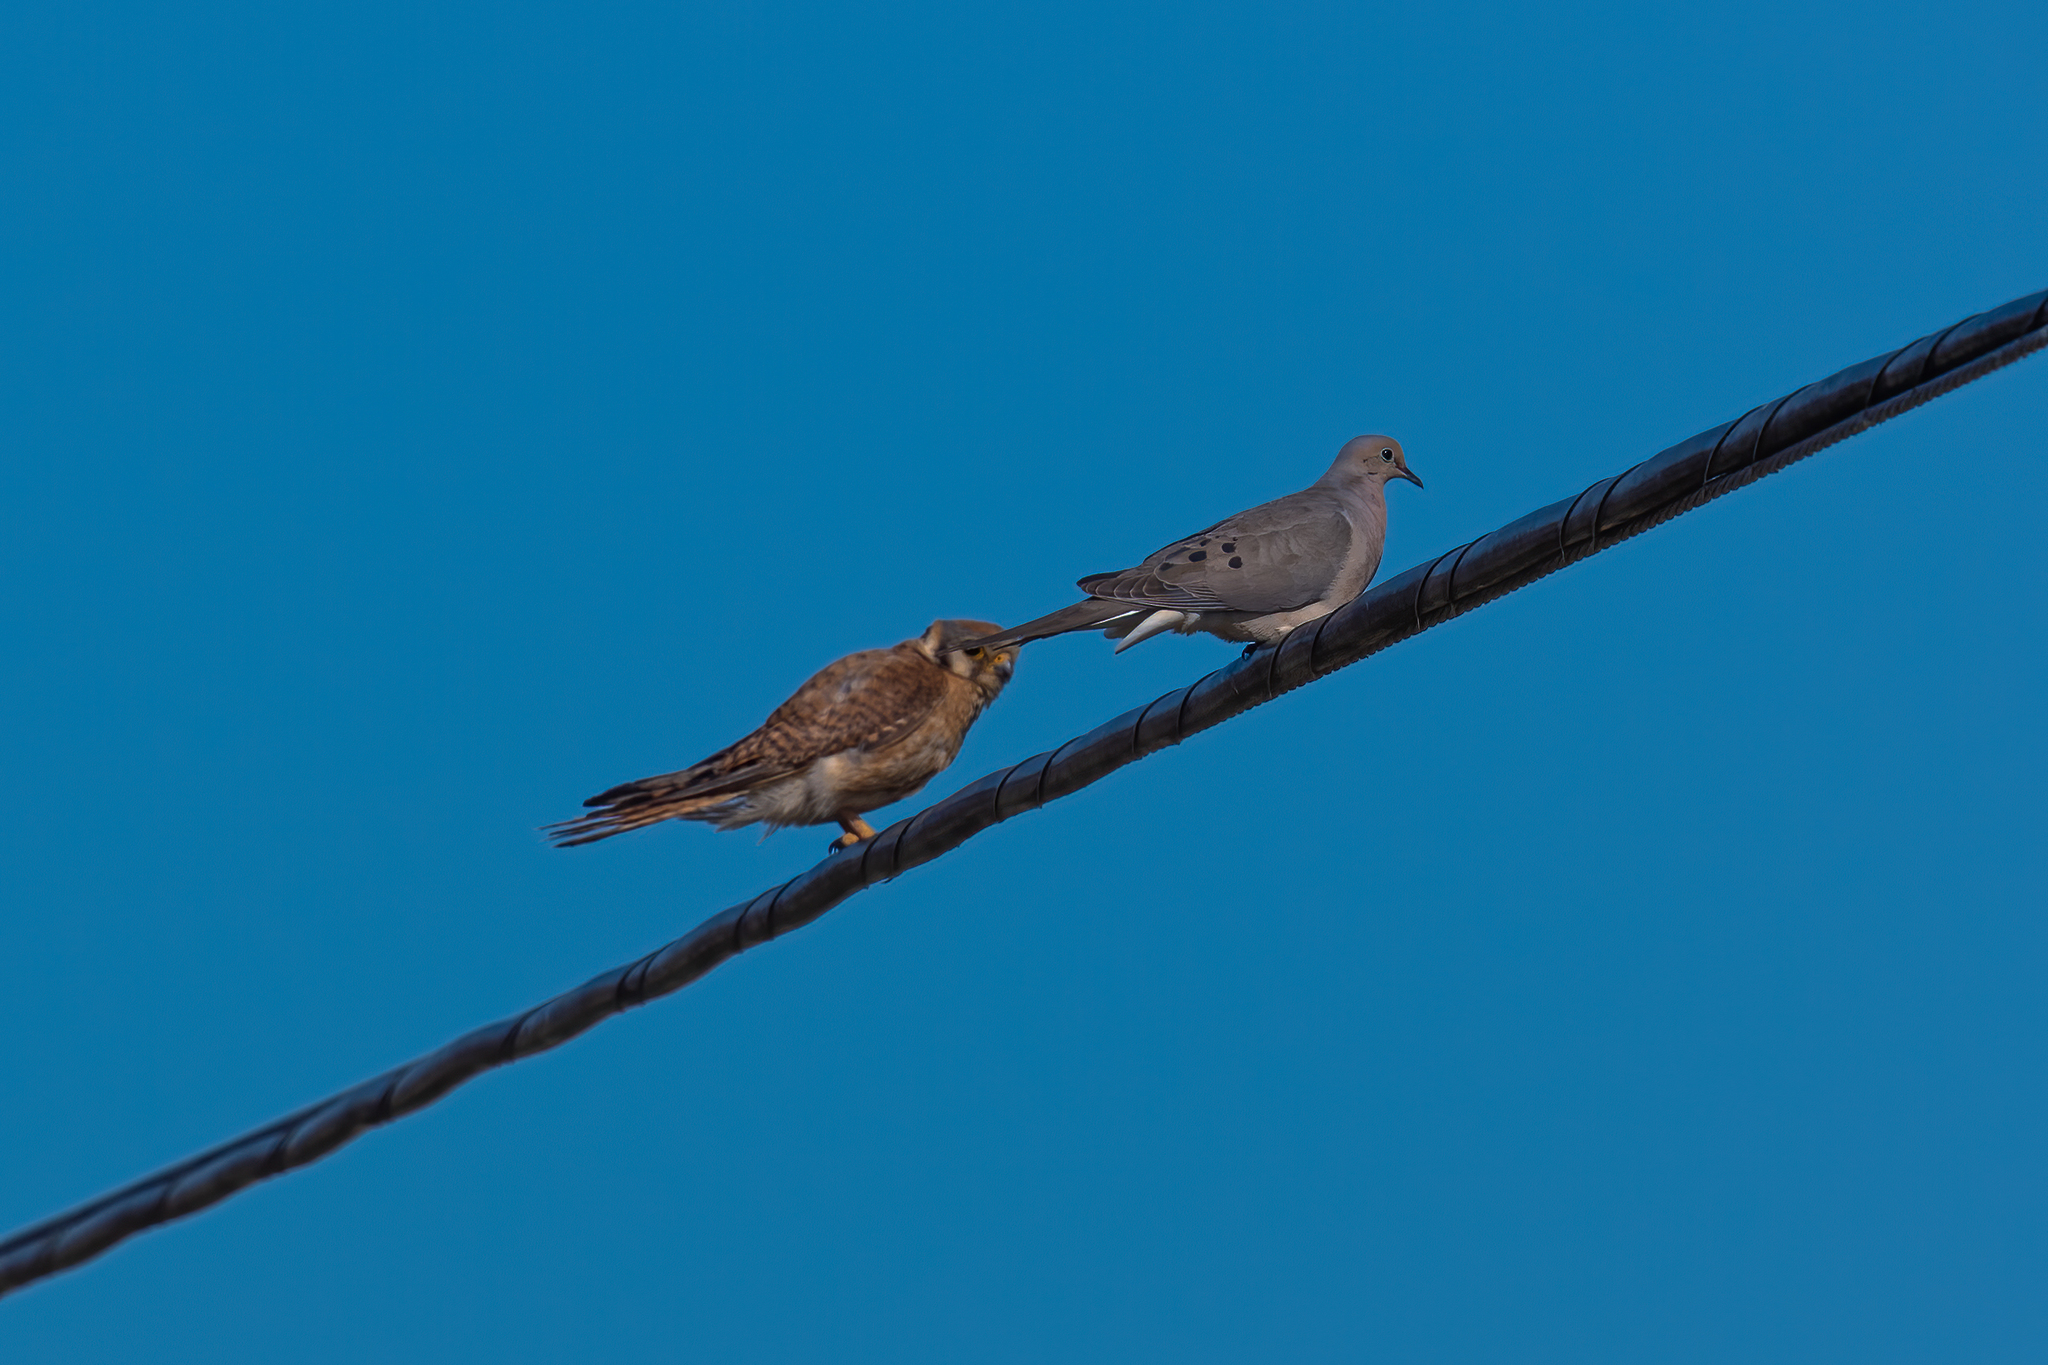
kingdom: Animalia
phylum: Chordata
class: Aves
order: Columbiformes
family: Columbidae
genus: Zenaida
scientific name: Zenaida macroura
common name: Mourning dove
